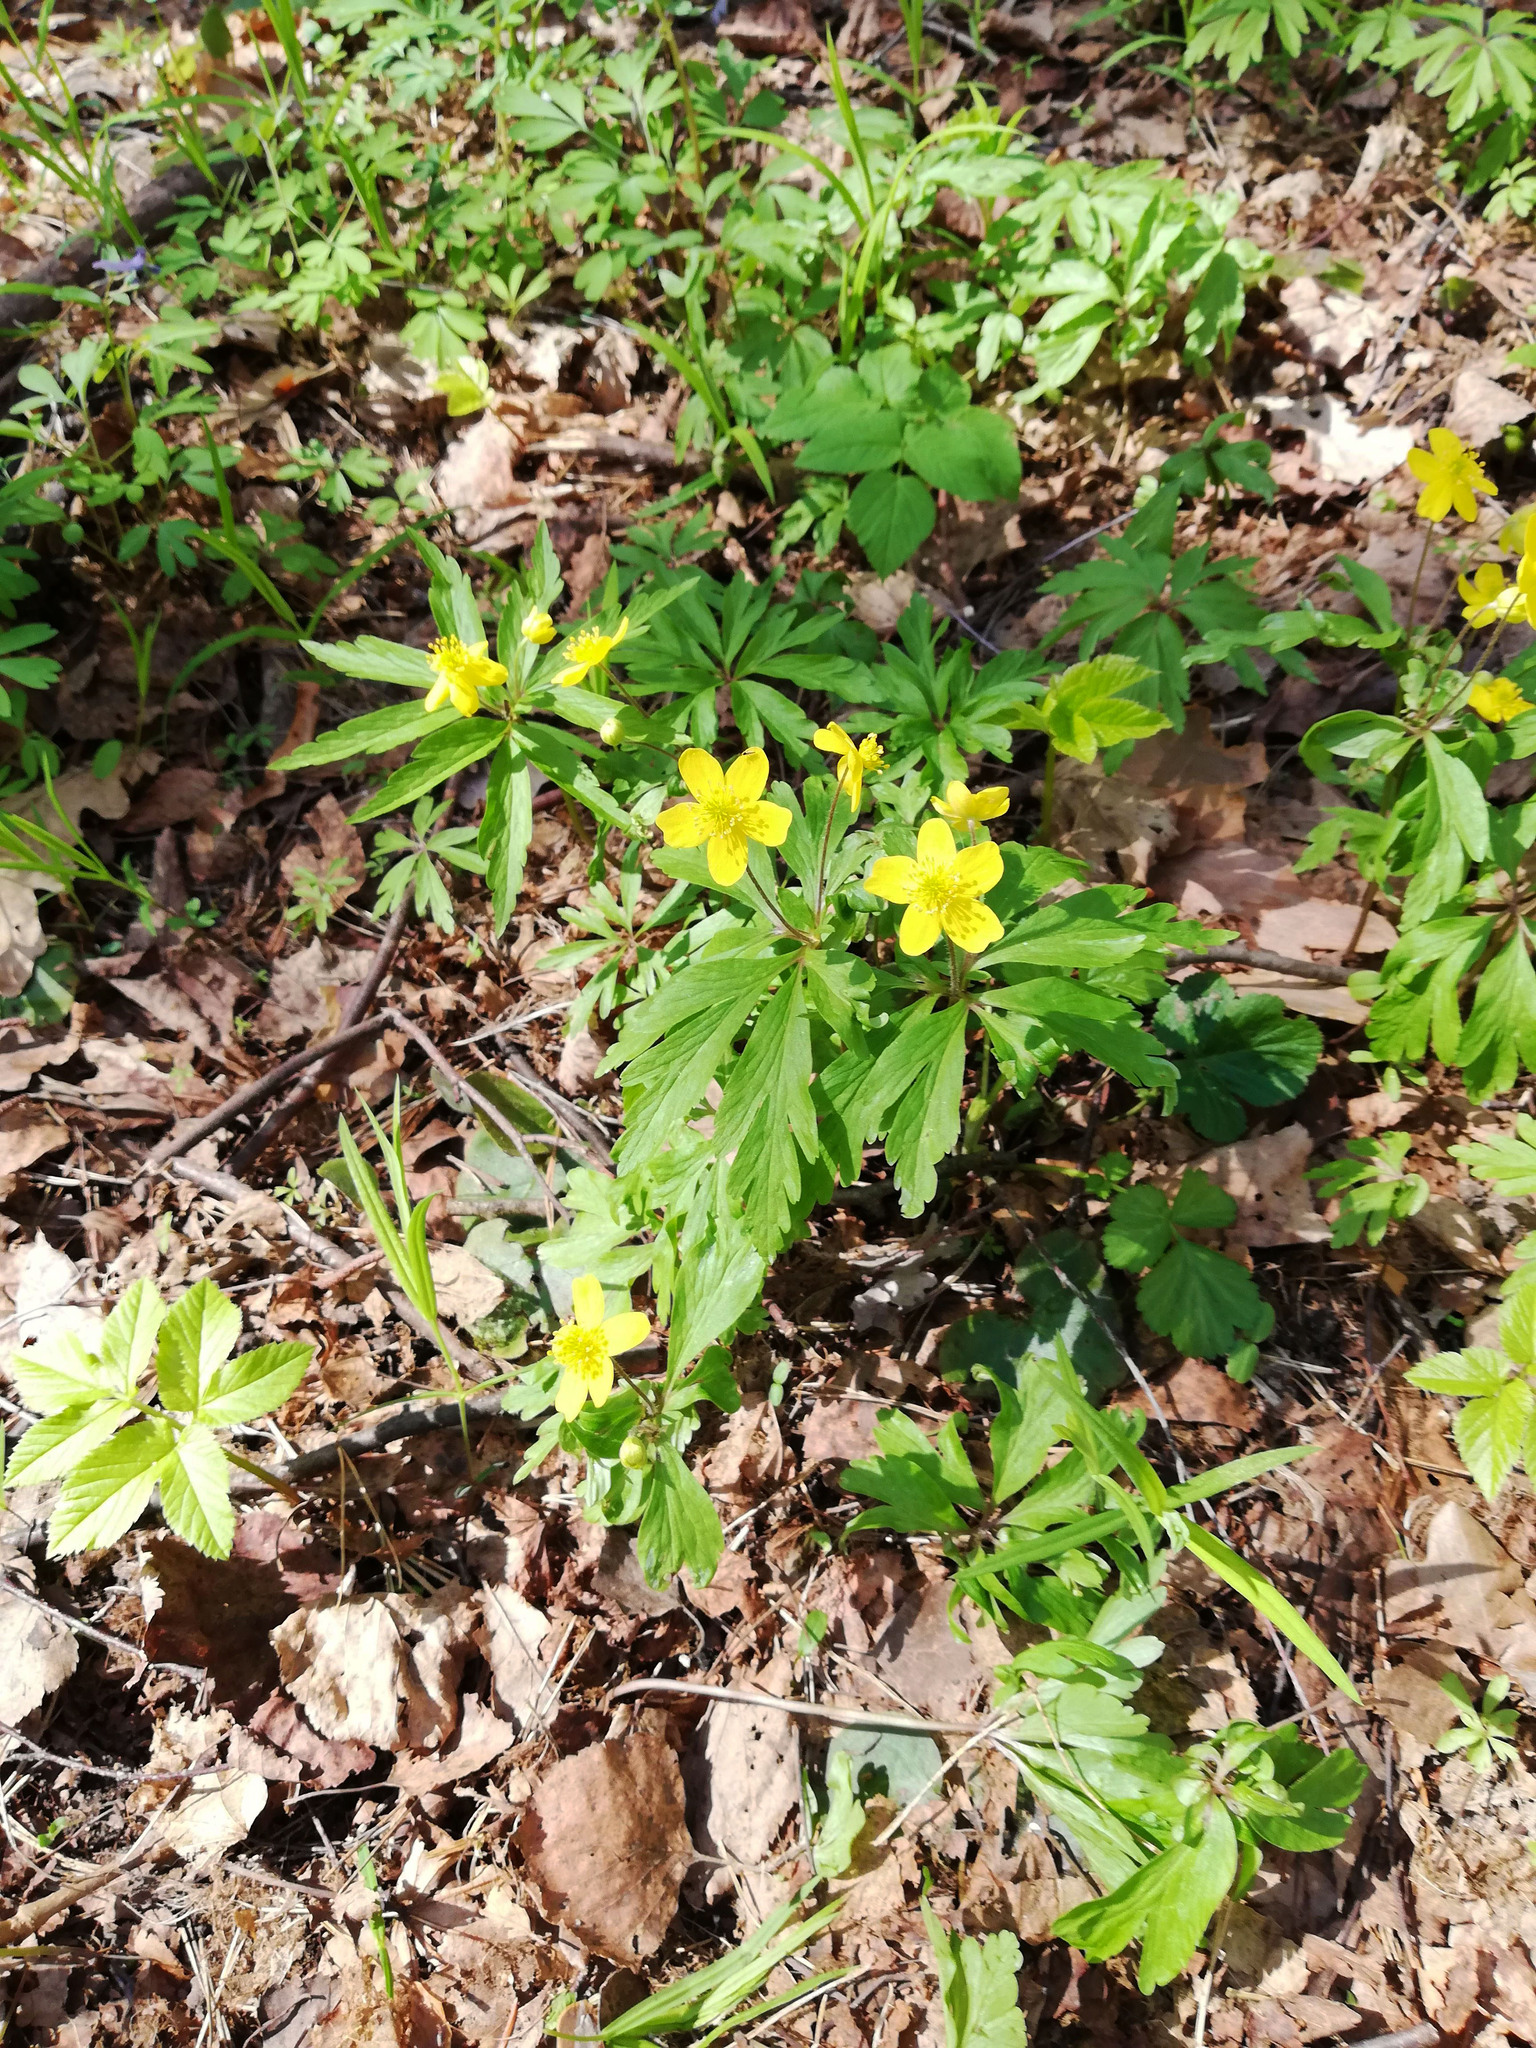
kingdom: Plantae
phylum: Tracheophyta
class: Magnoliopsida
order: Ranunculales
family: Ranunculaceae
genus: Anemone
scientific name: Anemone ranunculoides
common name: Yellow anemone
